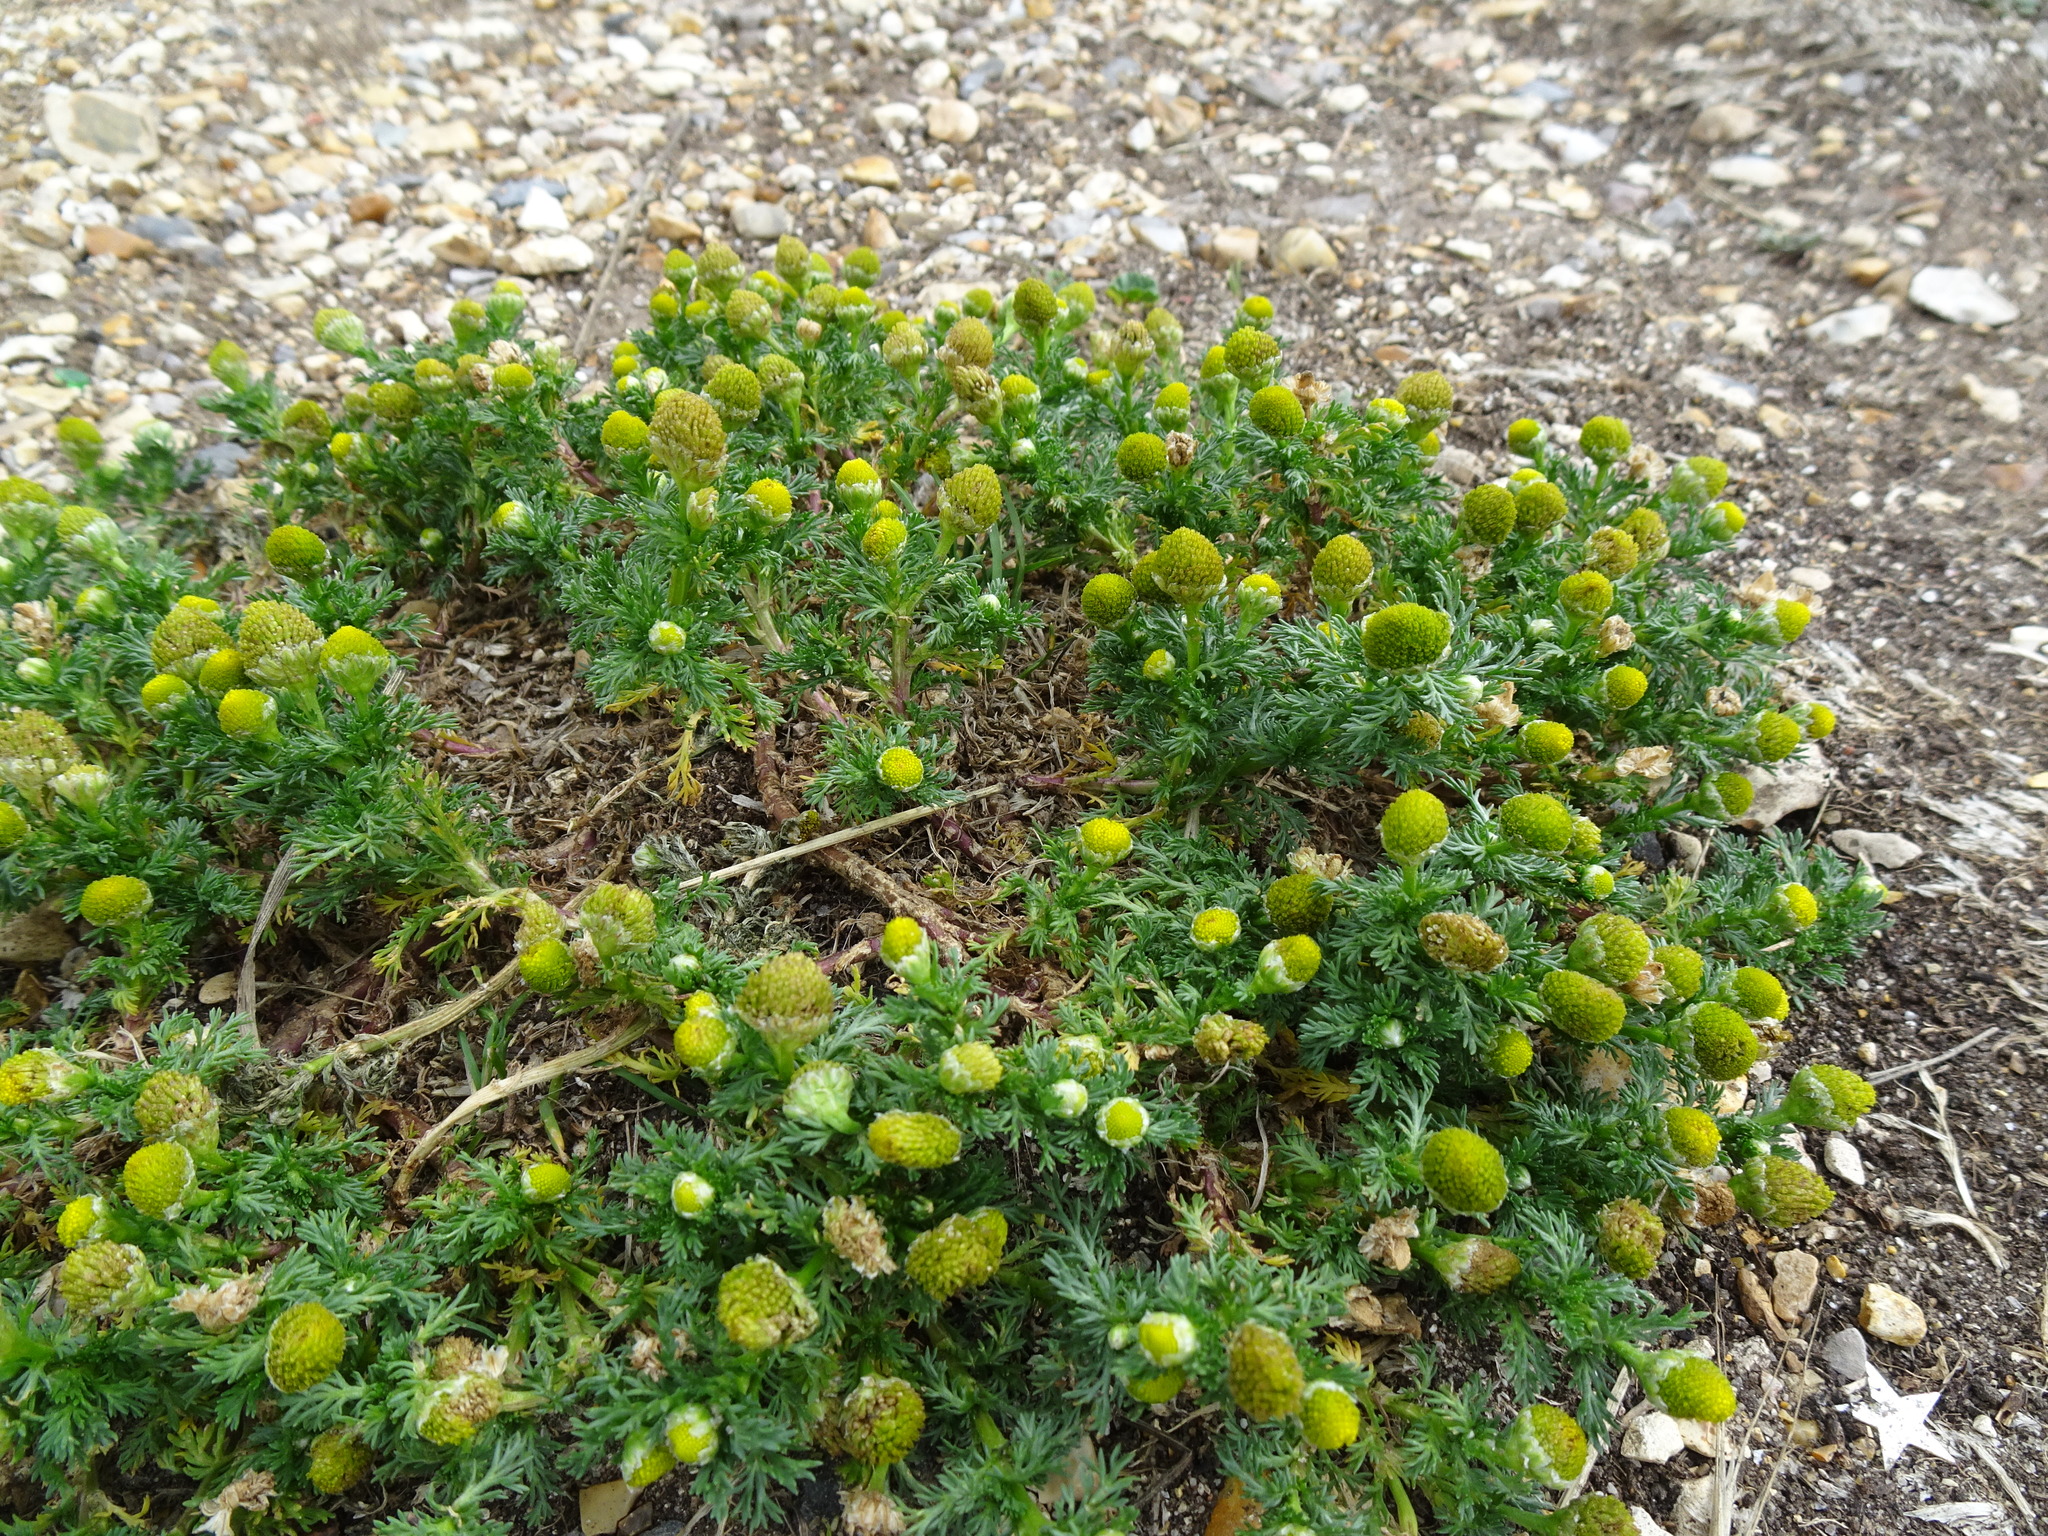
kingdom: Plantae
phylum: Tracheophyta
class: Magnoliopsida
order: Asterales
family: Asteraceae
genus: Matricaria
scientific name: Matricaria discoidea
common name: Disc mayweed
